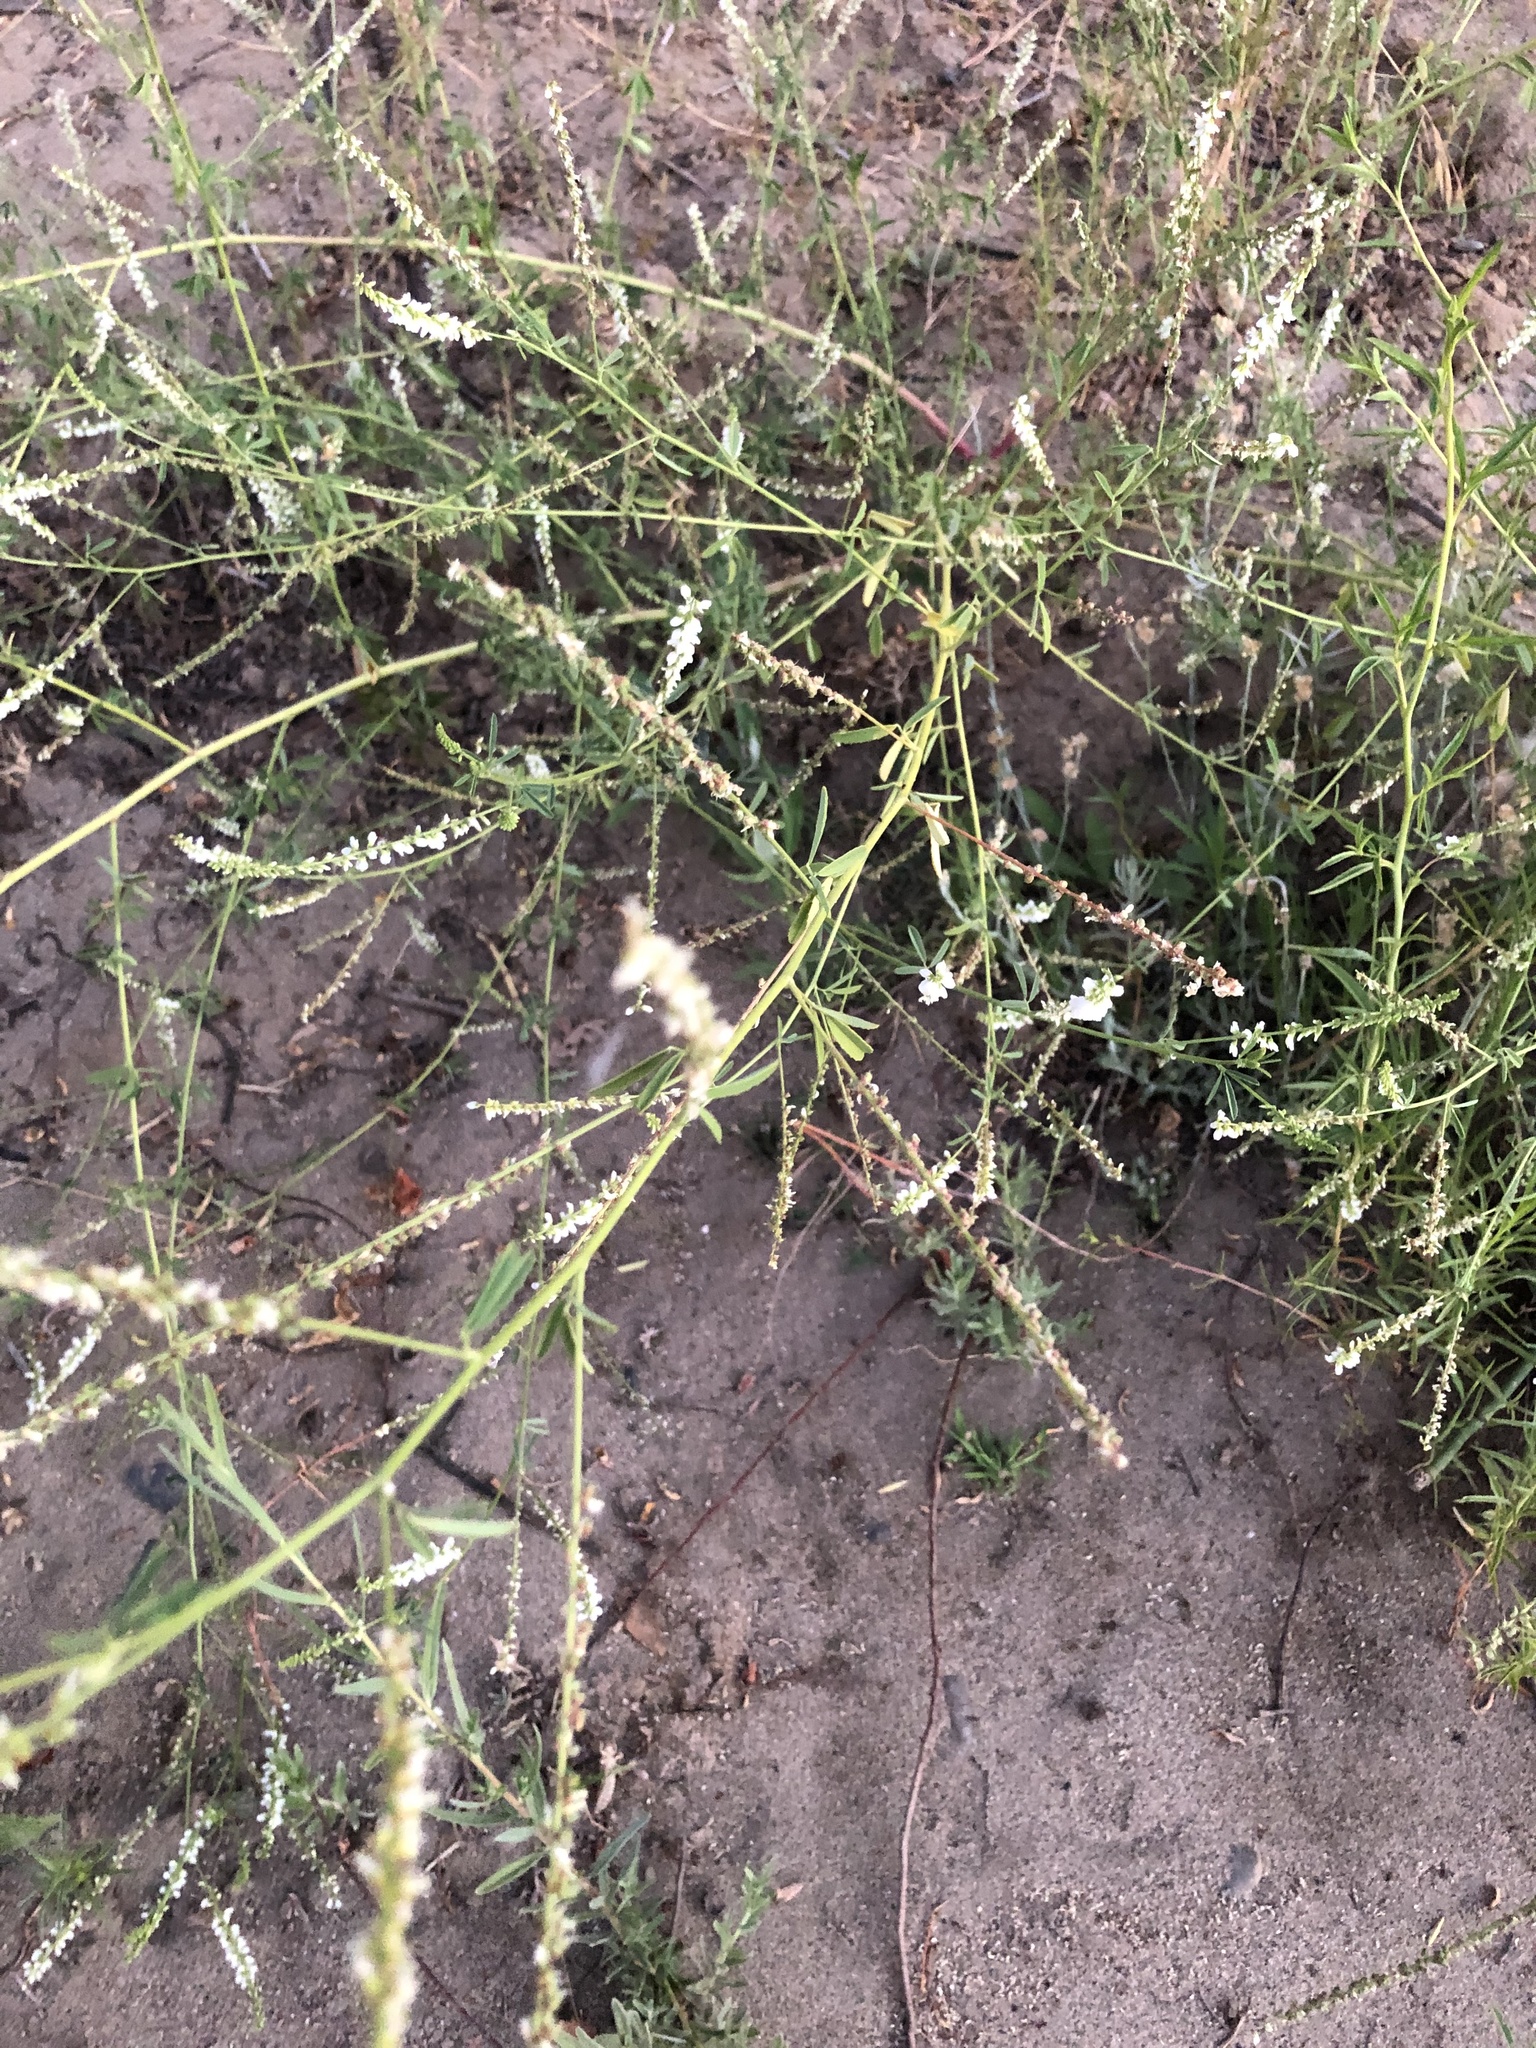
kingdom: Plantae
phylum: Tracheophyta
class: Magnoliopsida
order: Fabales
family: Fabaceae
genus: Melilotus
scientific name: Melilotus albus
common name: White melilot
